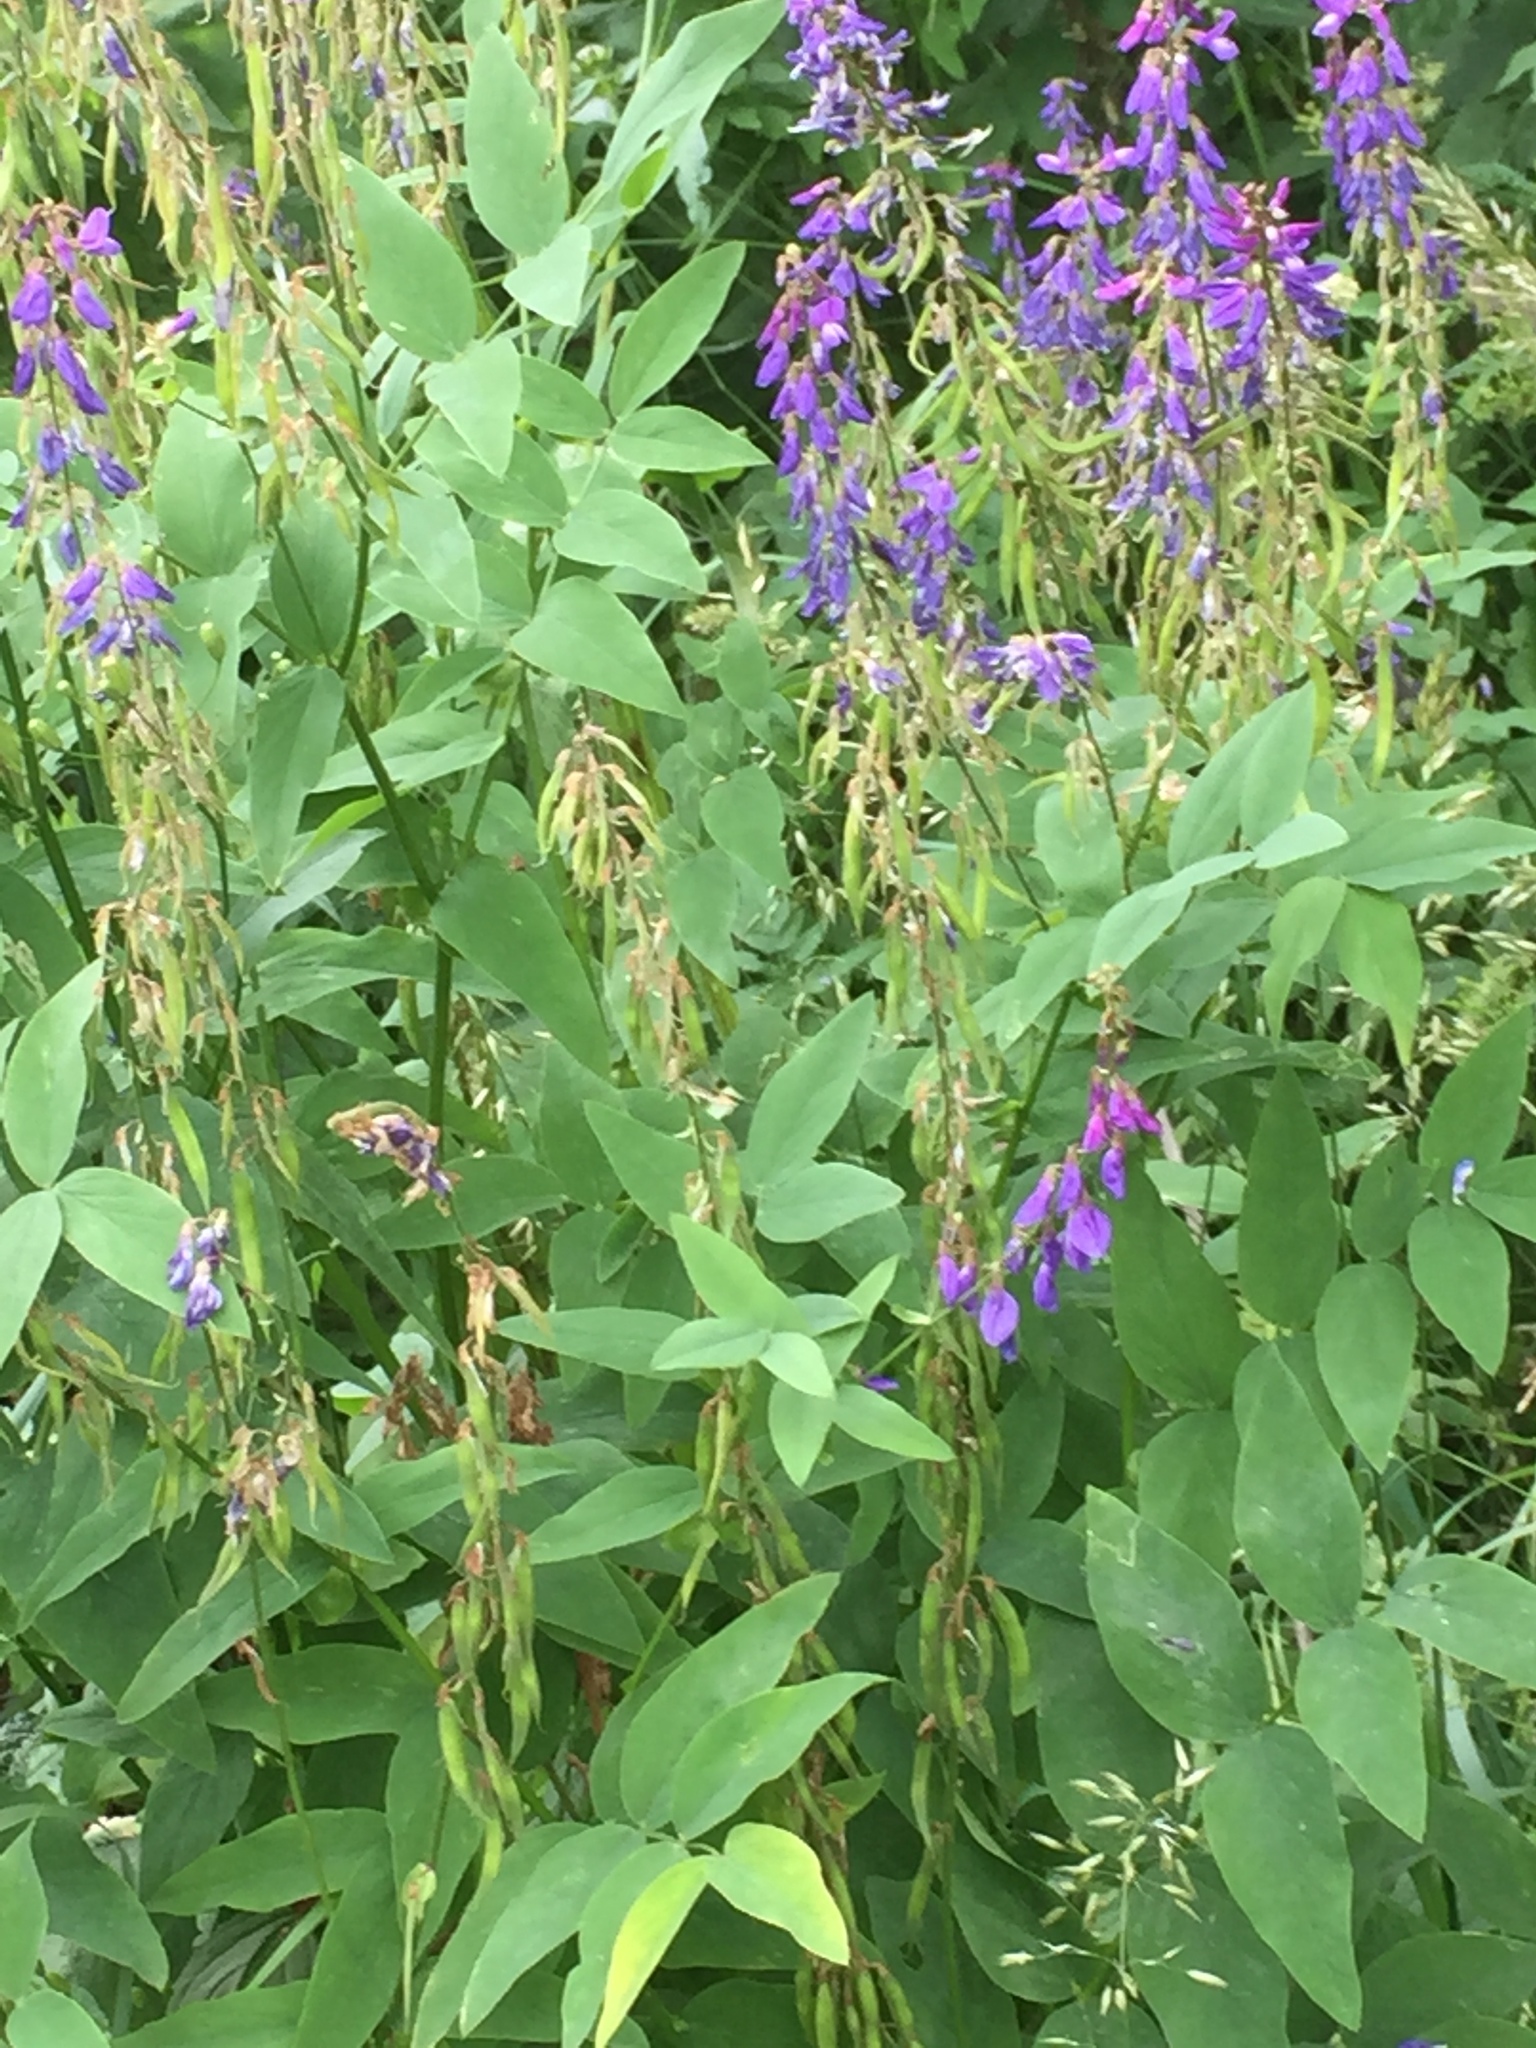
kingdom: Plantae
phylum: Tracheophyta
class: Magnoliopsida
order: Fabales
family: Fabaceae
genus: Galega
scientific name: Galega orientalis
